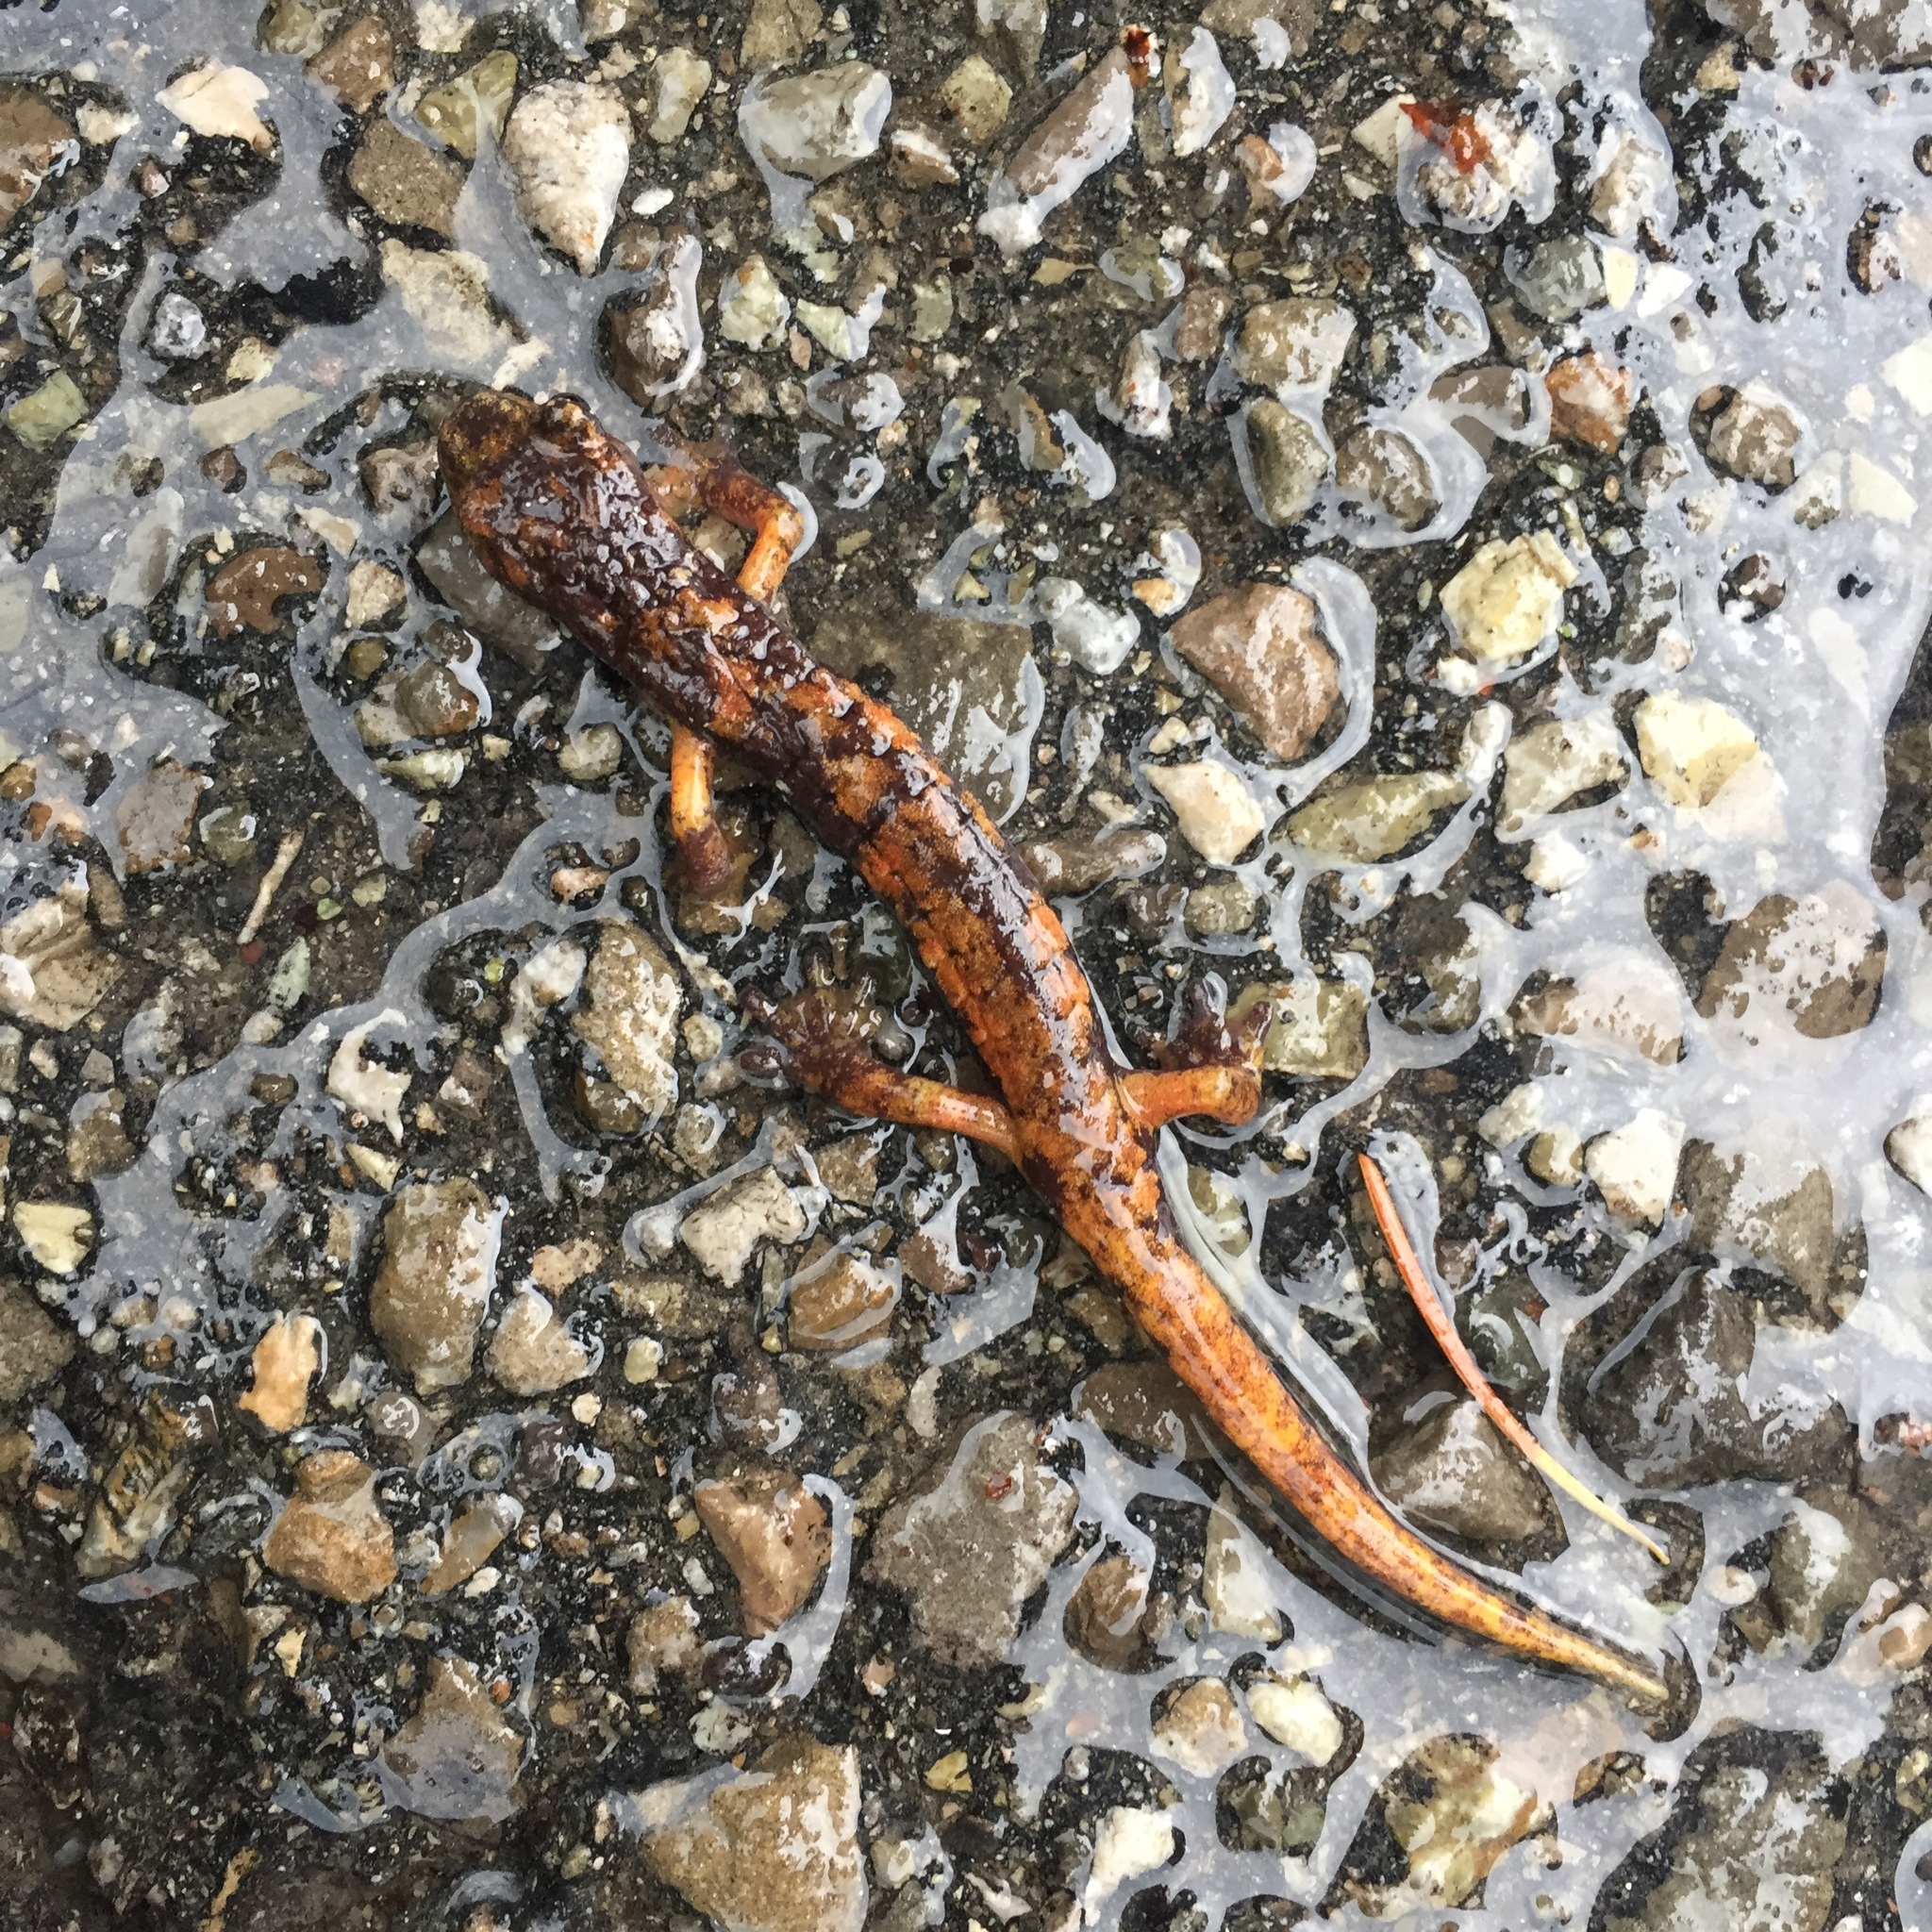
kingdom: Animalia
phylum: Chordata
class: Amphibia
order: Caudata
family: Plethodontidae
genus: Speleomantes
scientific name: Speleomantes italicus
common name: Italian cave salamander
